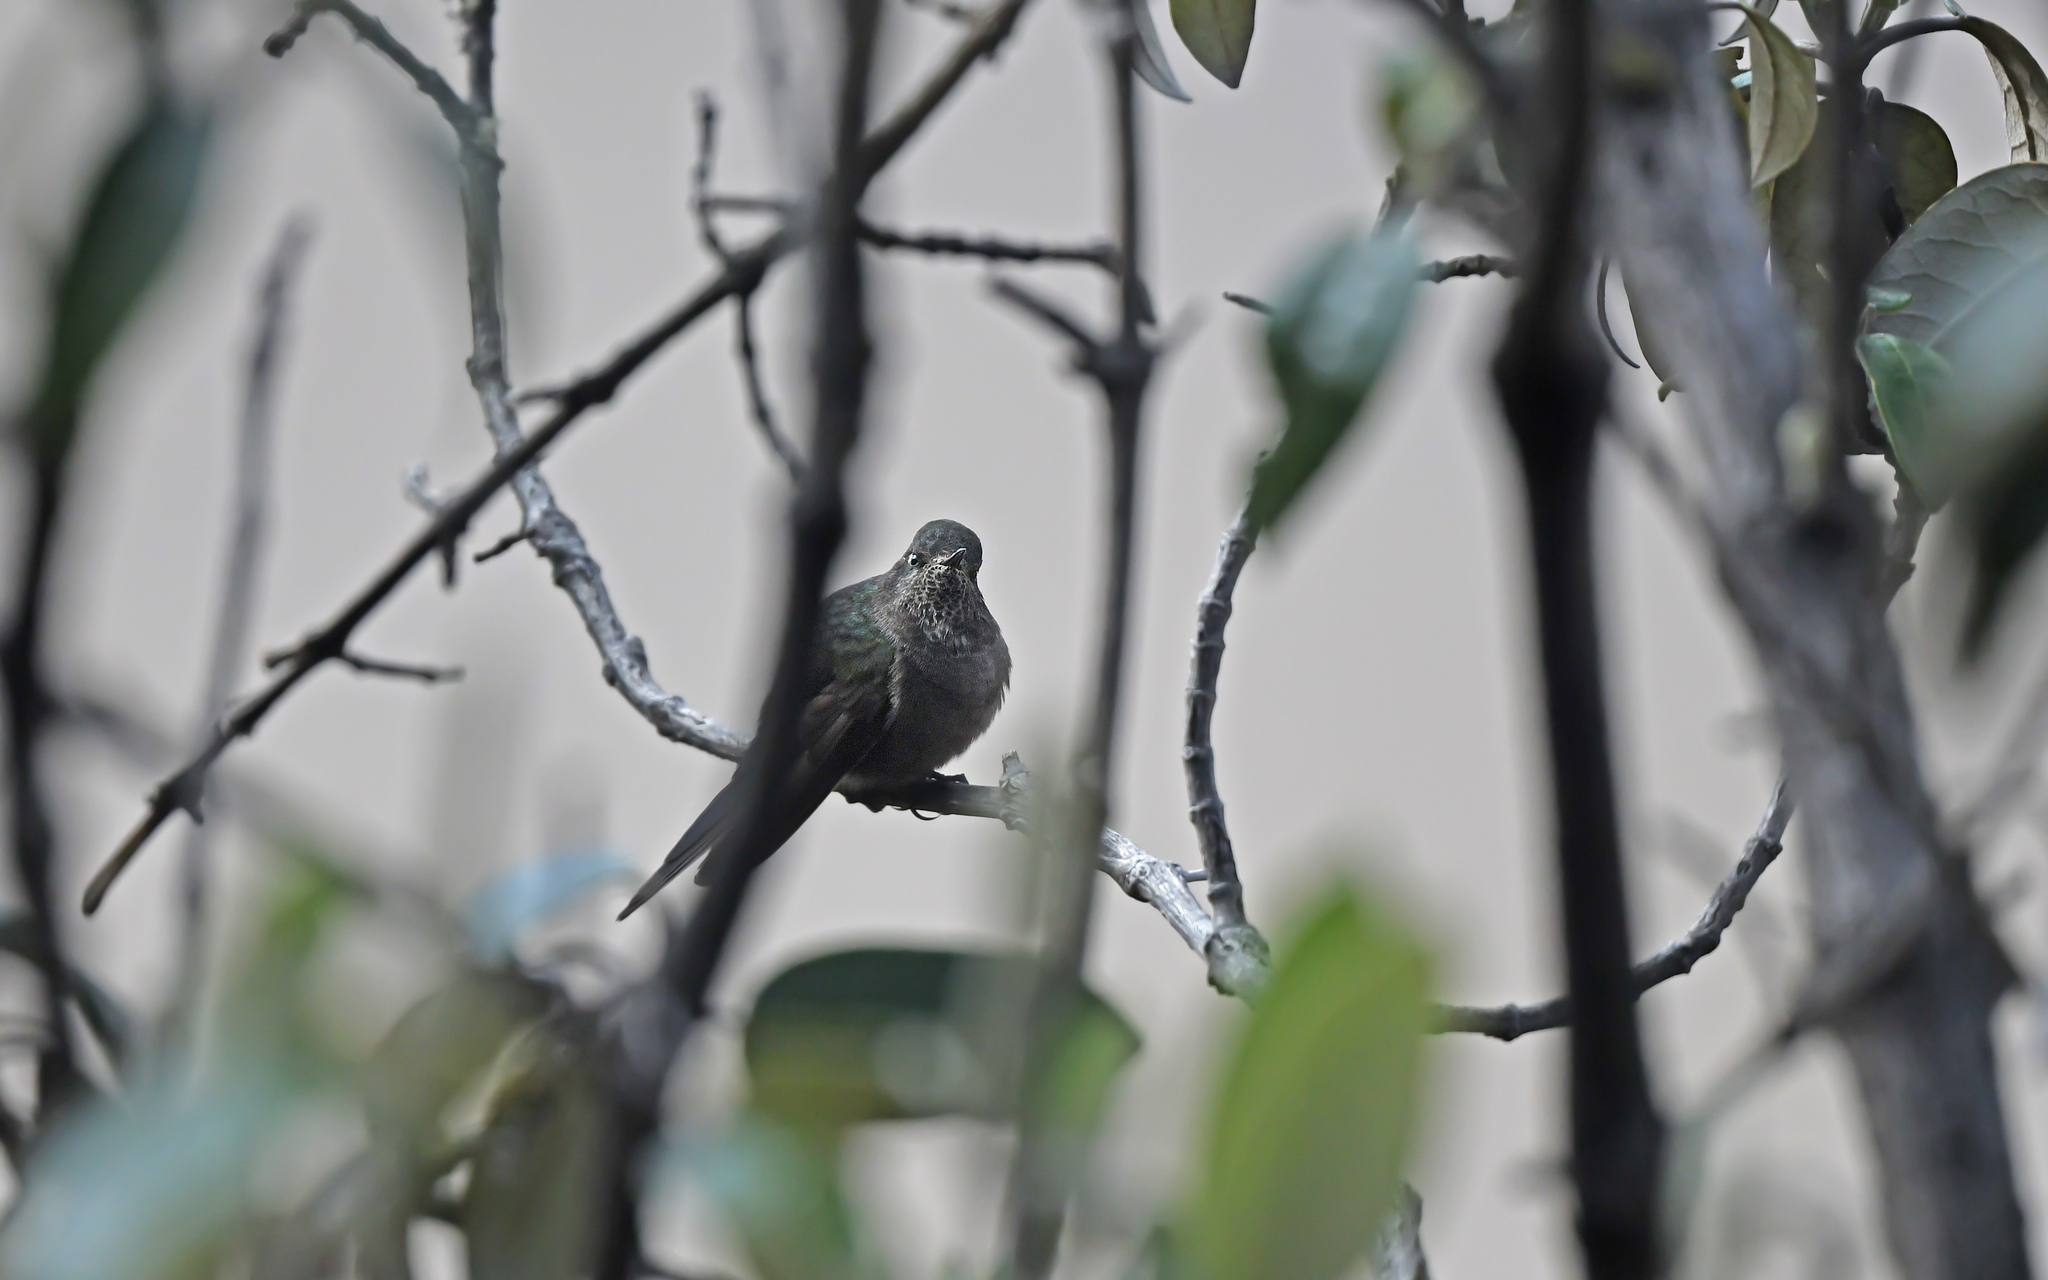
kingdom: Animalia
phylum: Chordata
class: Aves
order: Apodiformes
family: Trochilidae
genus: Chalcostigma
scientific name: Chalcostigma stanleyi
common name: Blue-mantled thornbill
